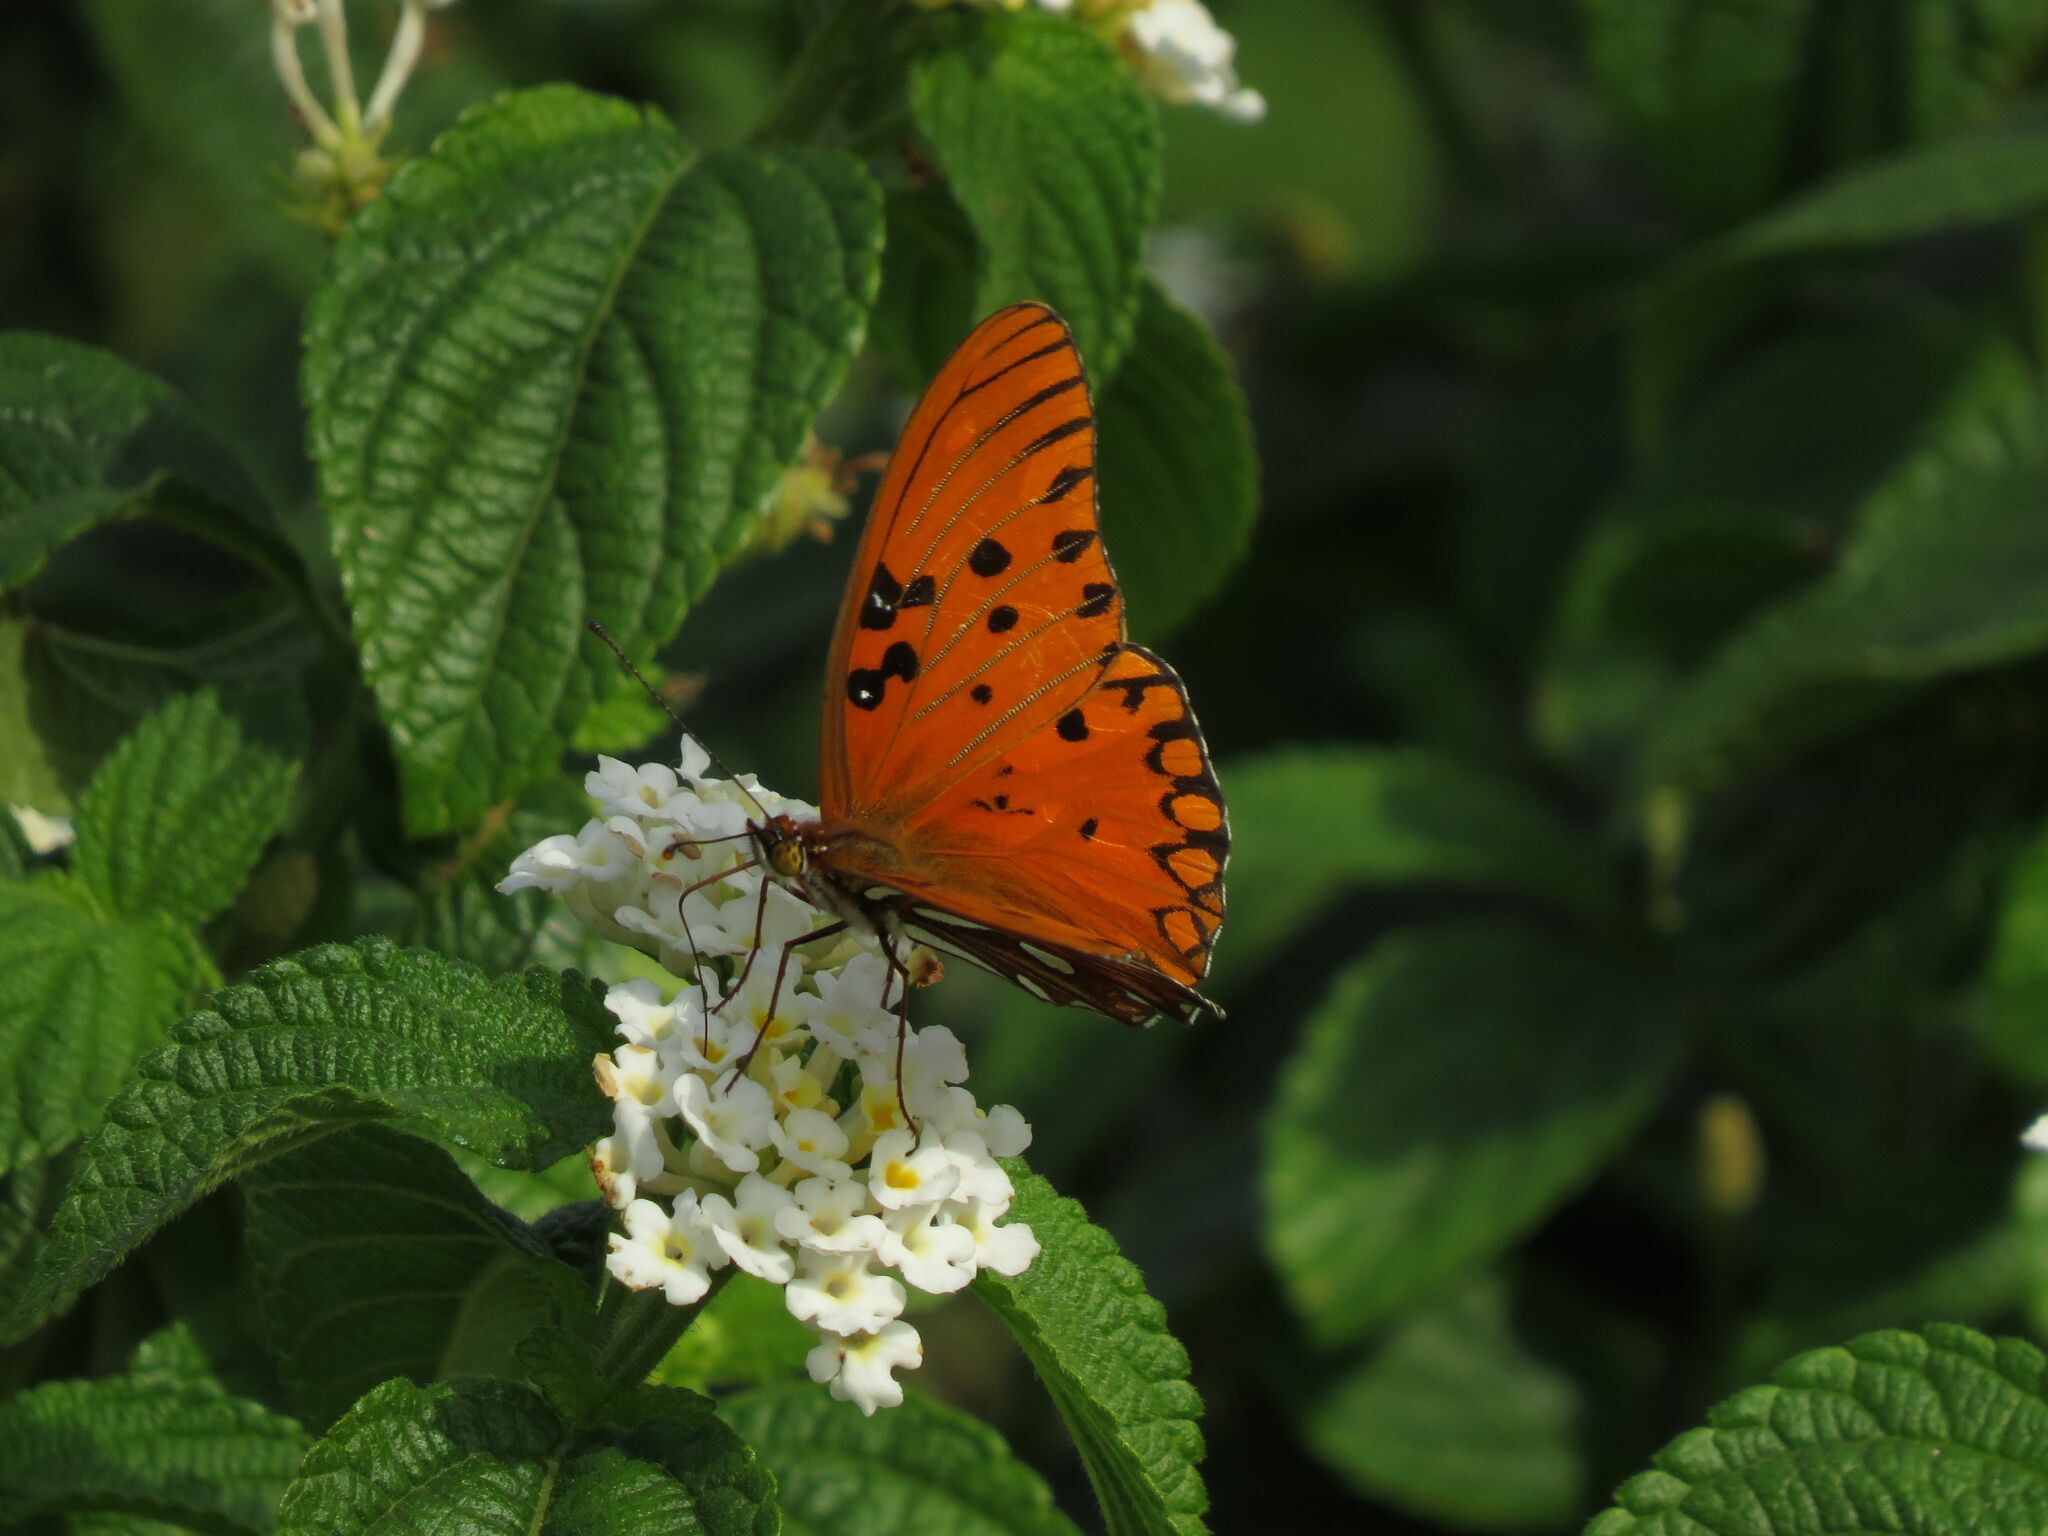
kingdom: Animalia
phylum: Arthropoda
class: Insecta
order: Lepidoptera
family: Nymphalidae
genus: Dione
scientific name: Dione vanillae
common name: Gulf fritillary
